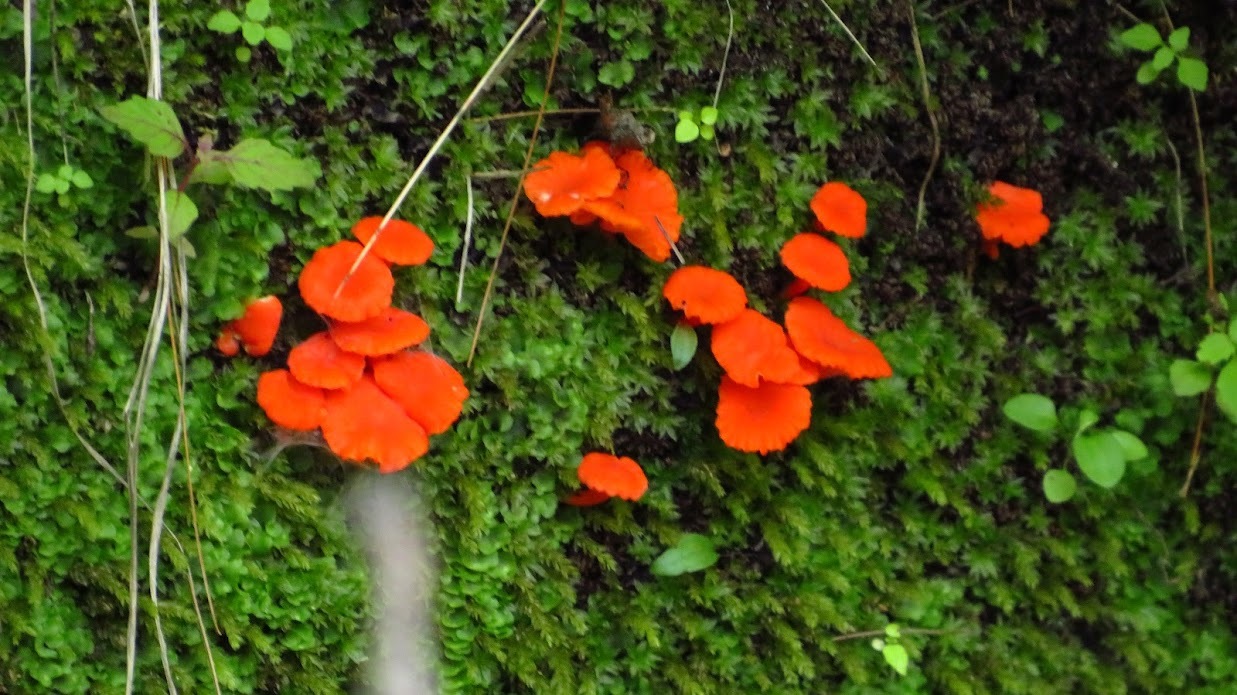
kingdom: Fungi
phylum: Basidiomycota
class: Agaricomycetes
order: Cantharellales
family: Hydnaceae
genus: Cantharellus
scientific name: Cantharellus cinnabarinus
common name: Cinnabar chanterelle
